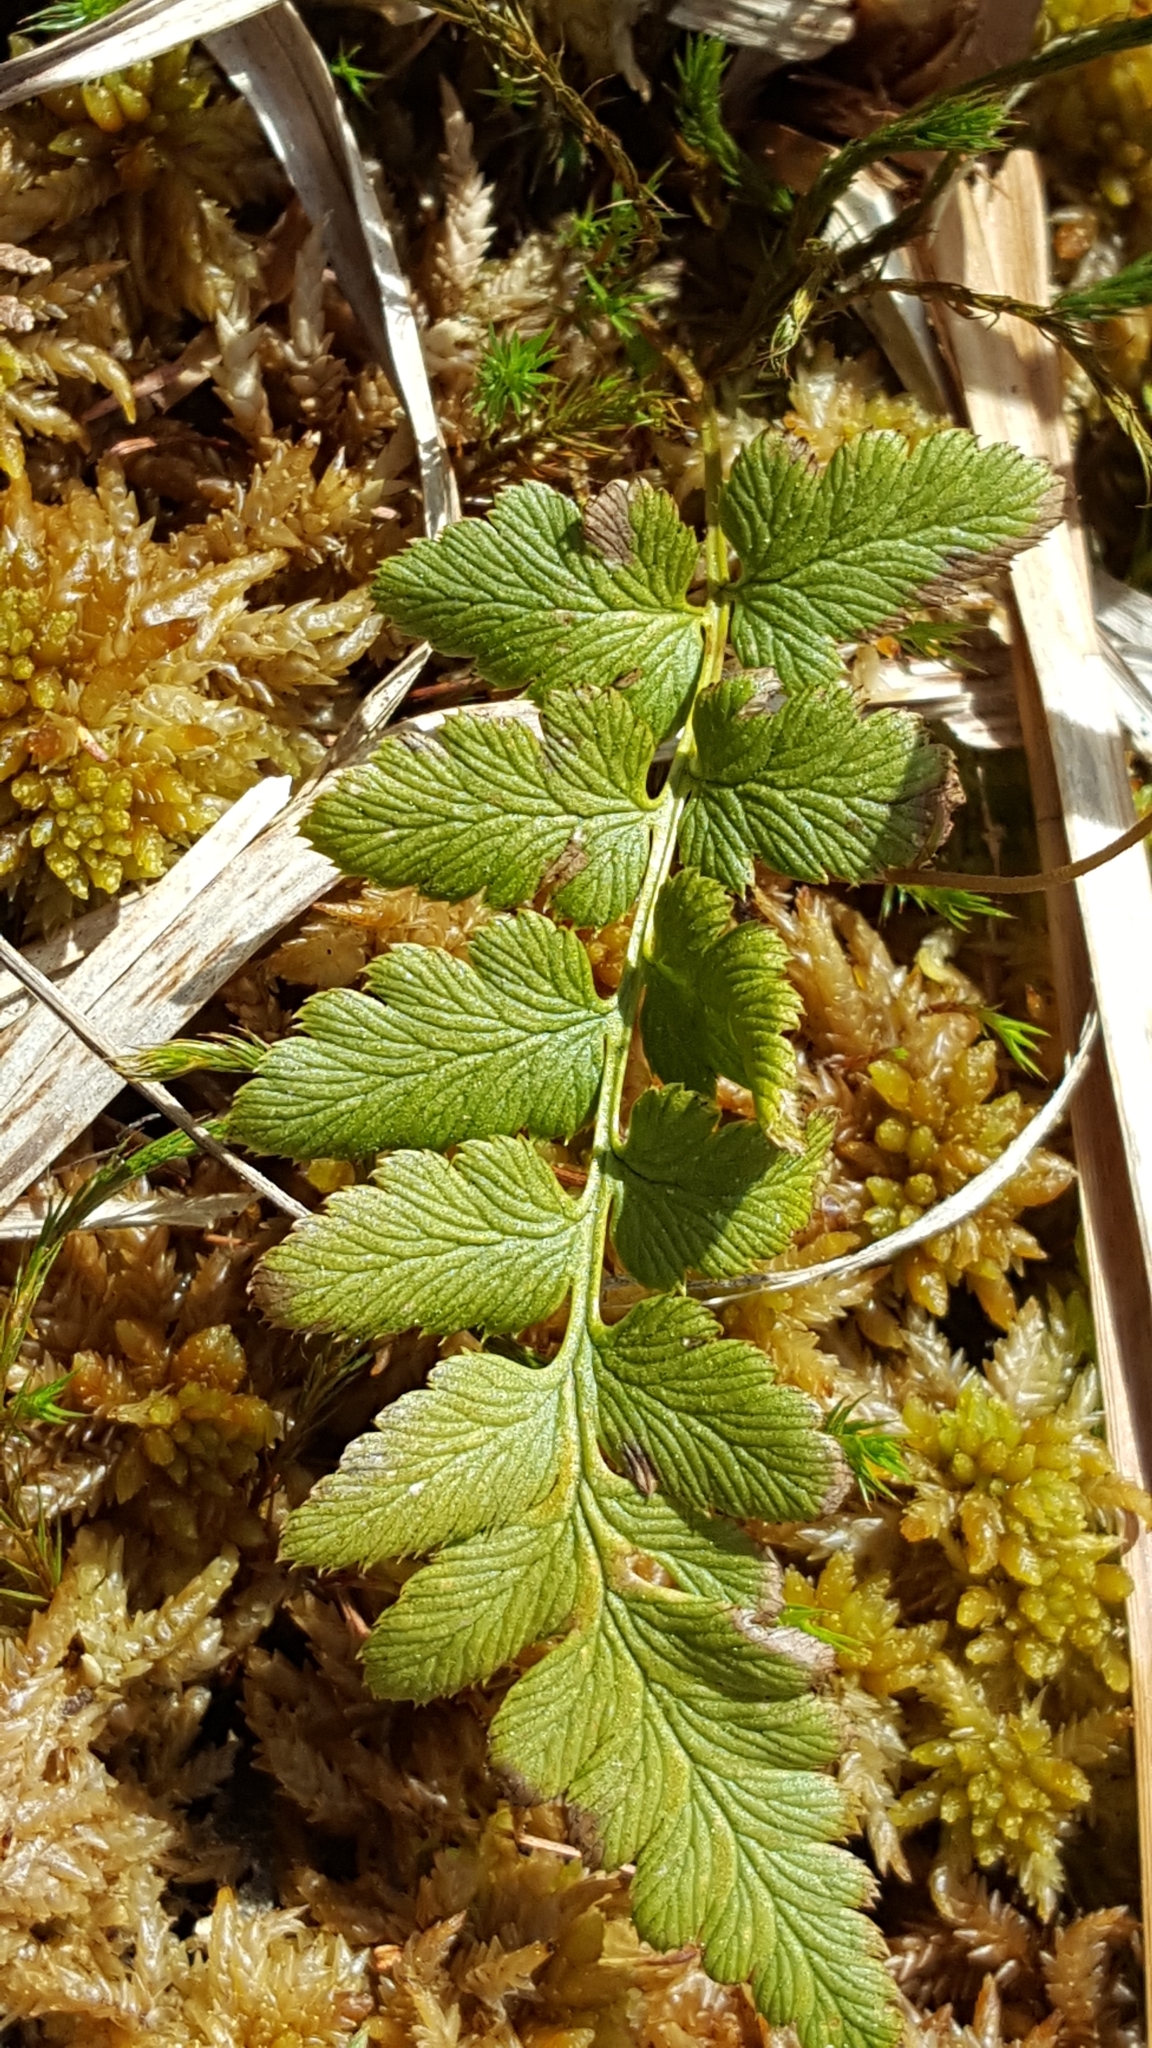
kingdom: Plantae
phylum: Tracheophyta
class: Polypodiopsida
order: Polypodiales
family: Dryopteridaceae
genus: Dryopteris
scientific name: Dryopteris cristata
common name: Crested wood fern
